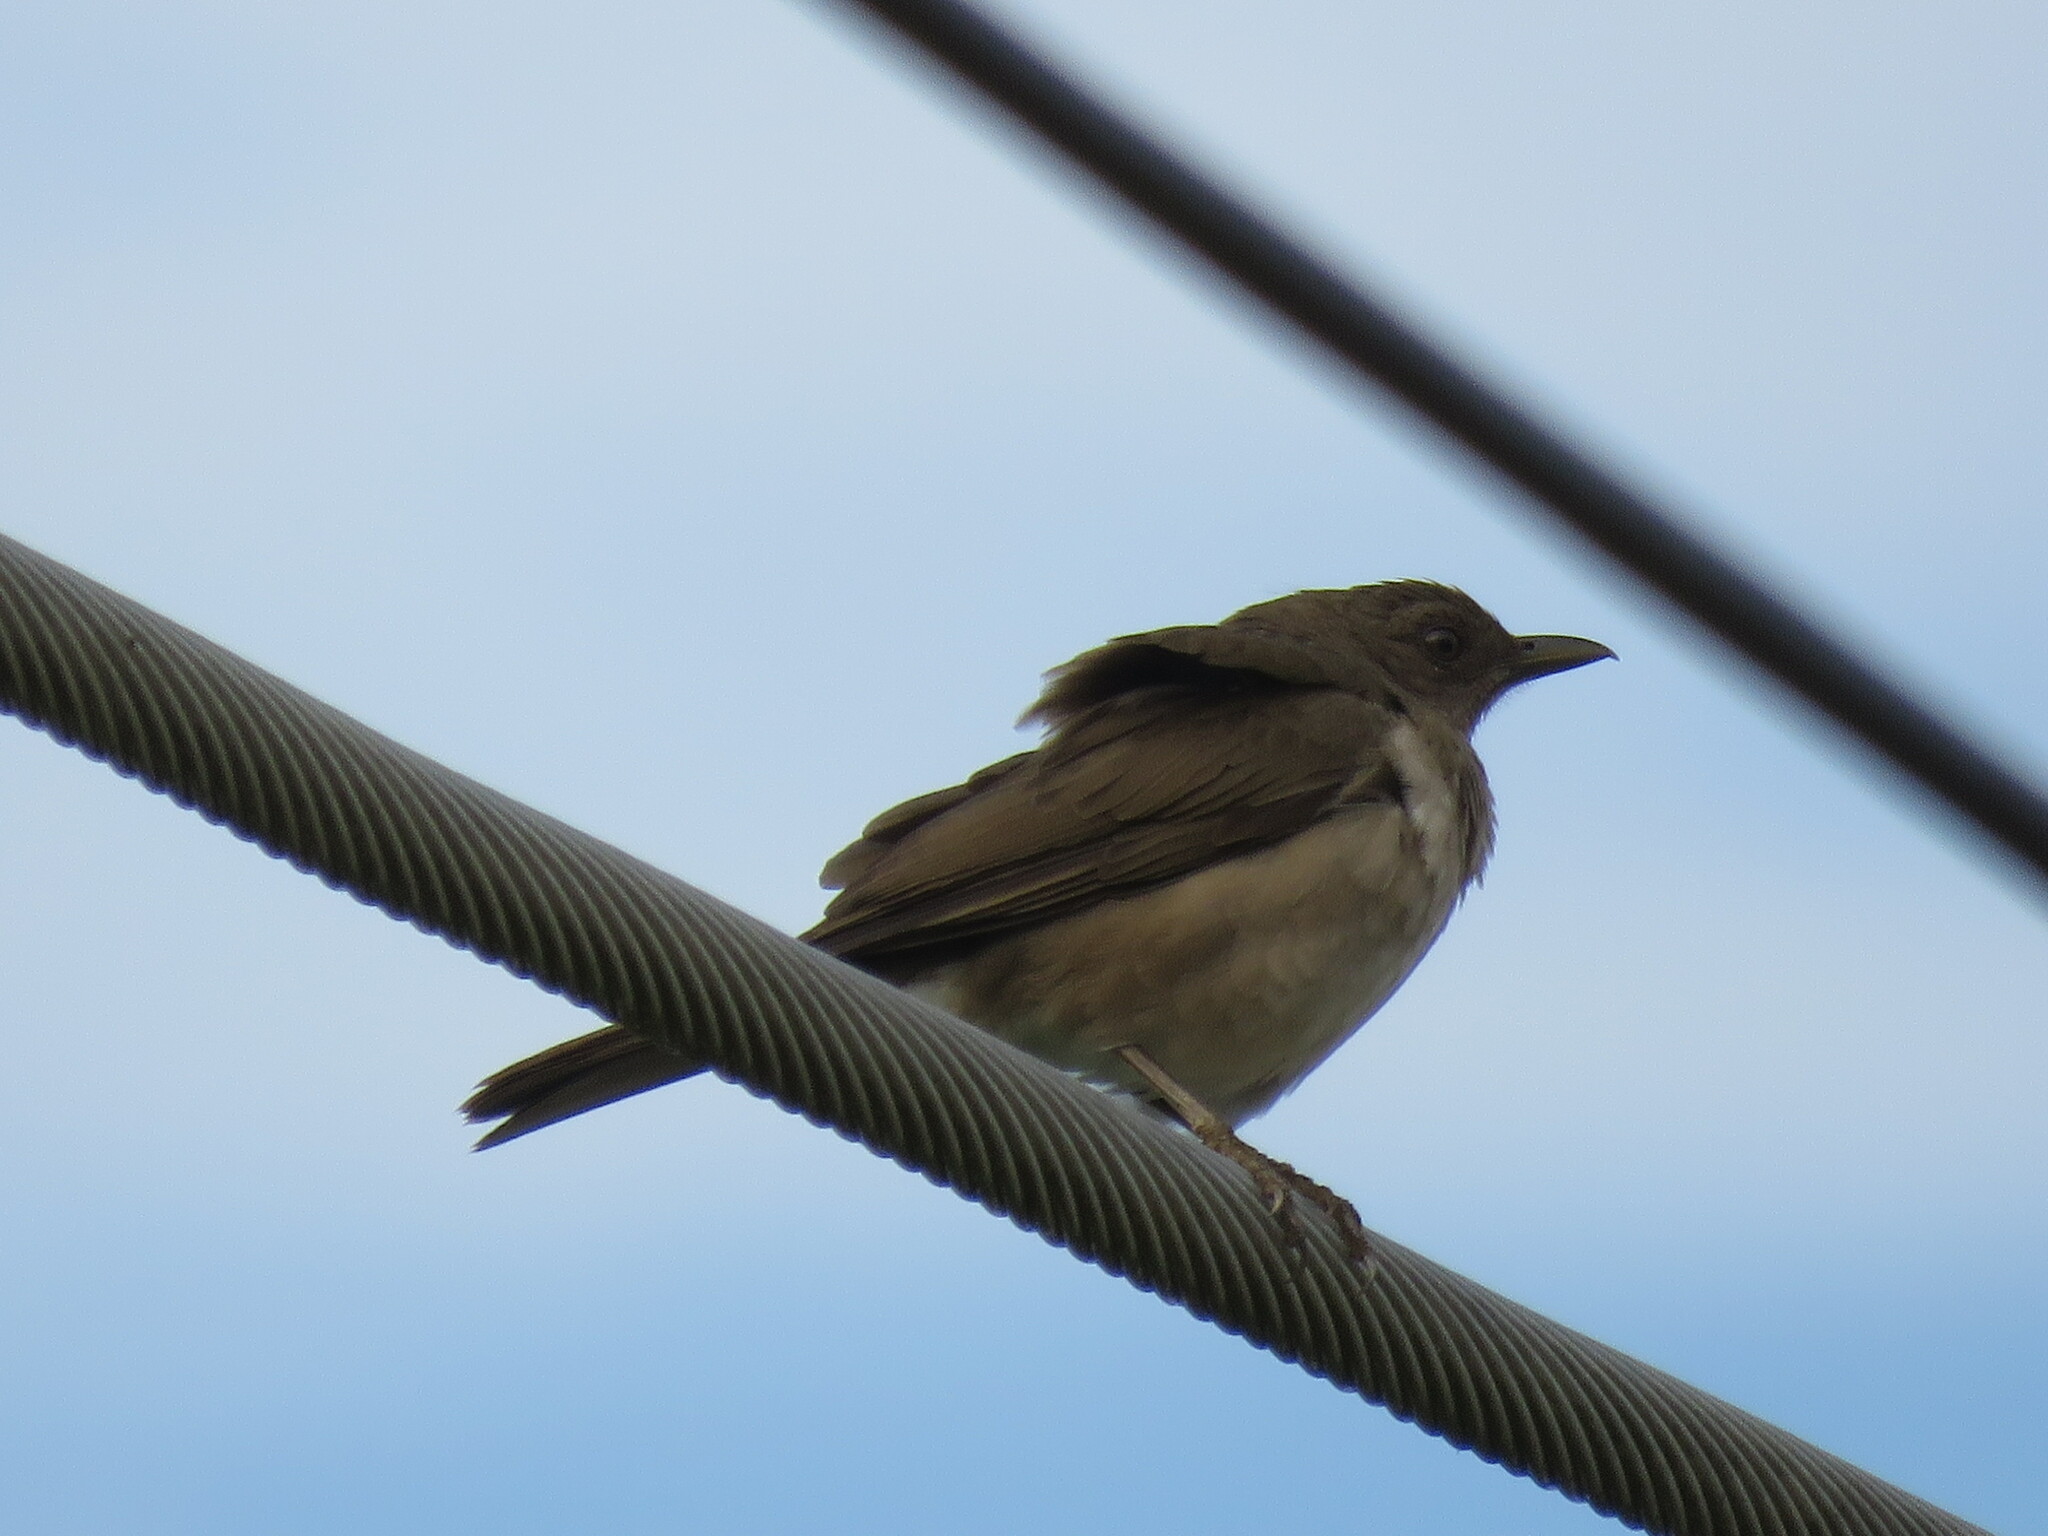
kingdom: Animalia
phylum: Chordata
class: Aves
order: Passeriformes
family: Turdidae
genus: Turdus
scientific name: Turdus leucomelas
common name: Pale-breasted thrush
